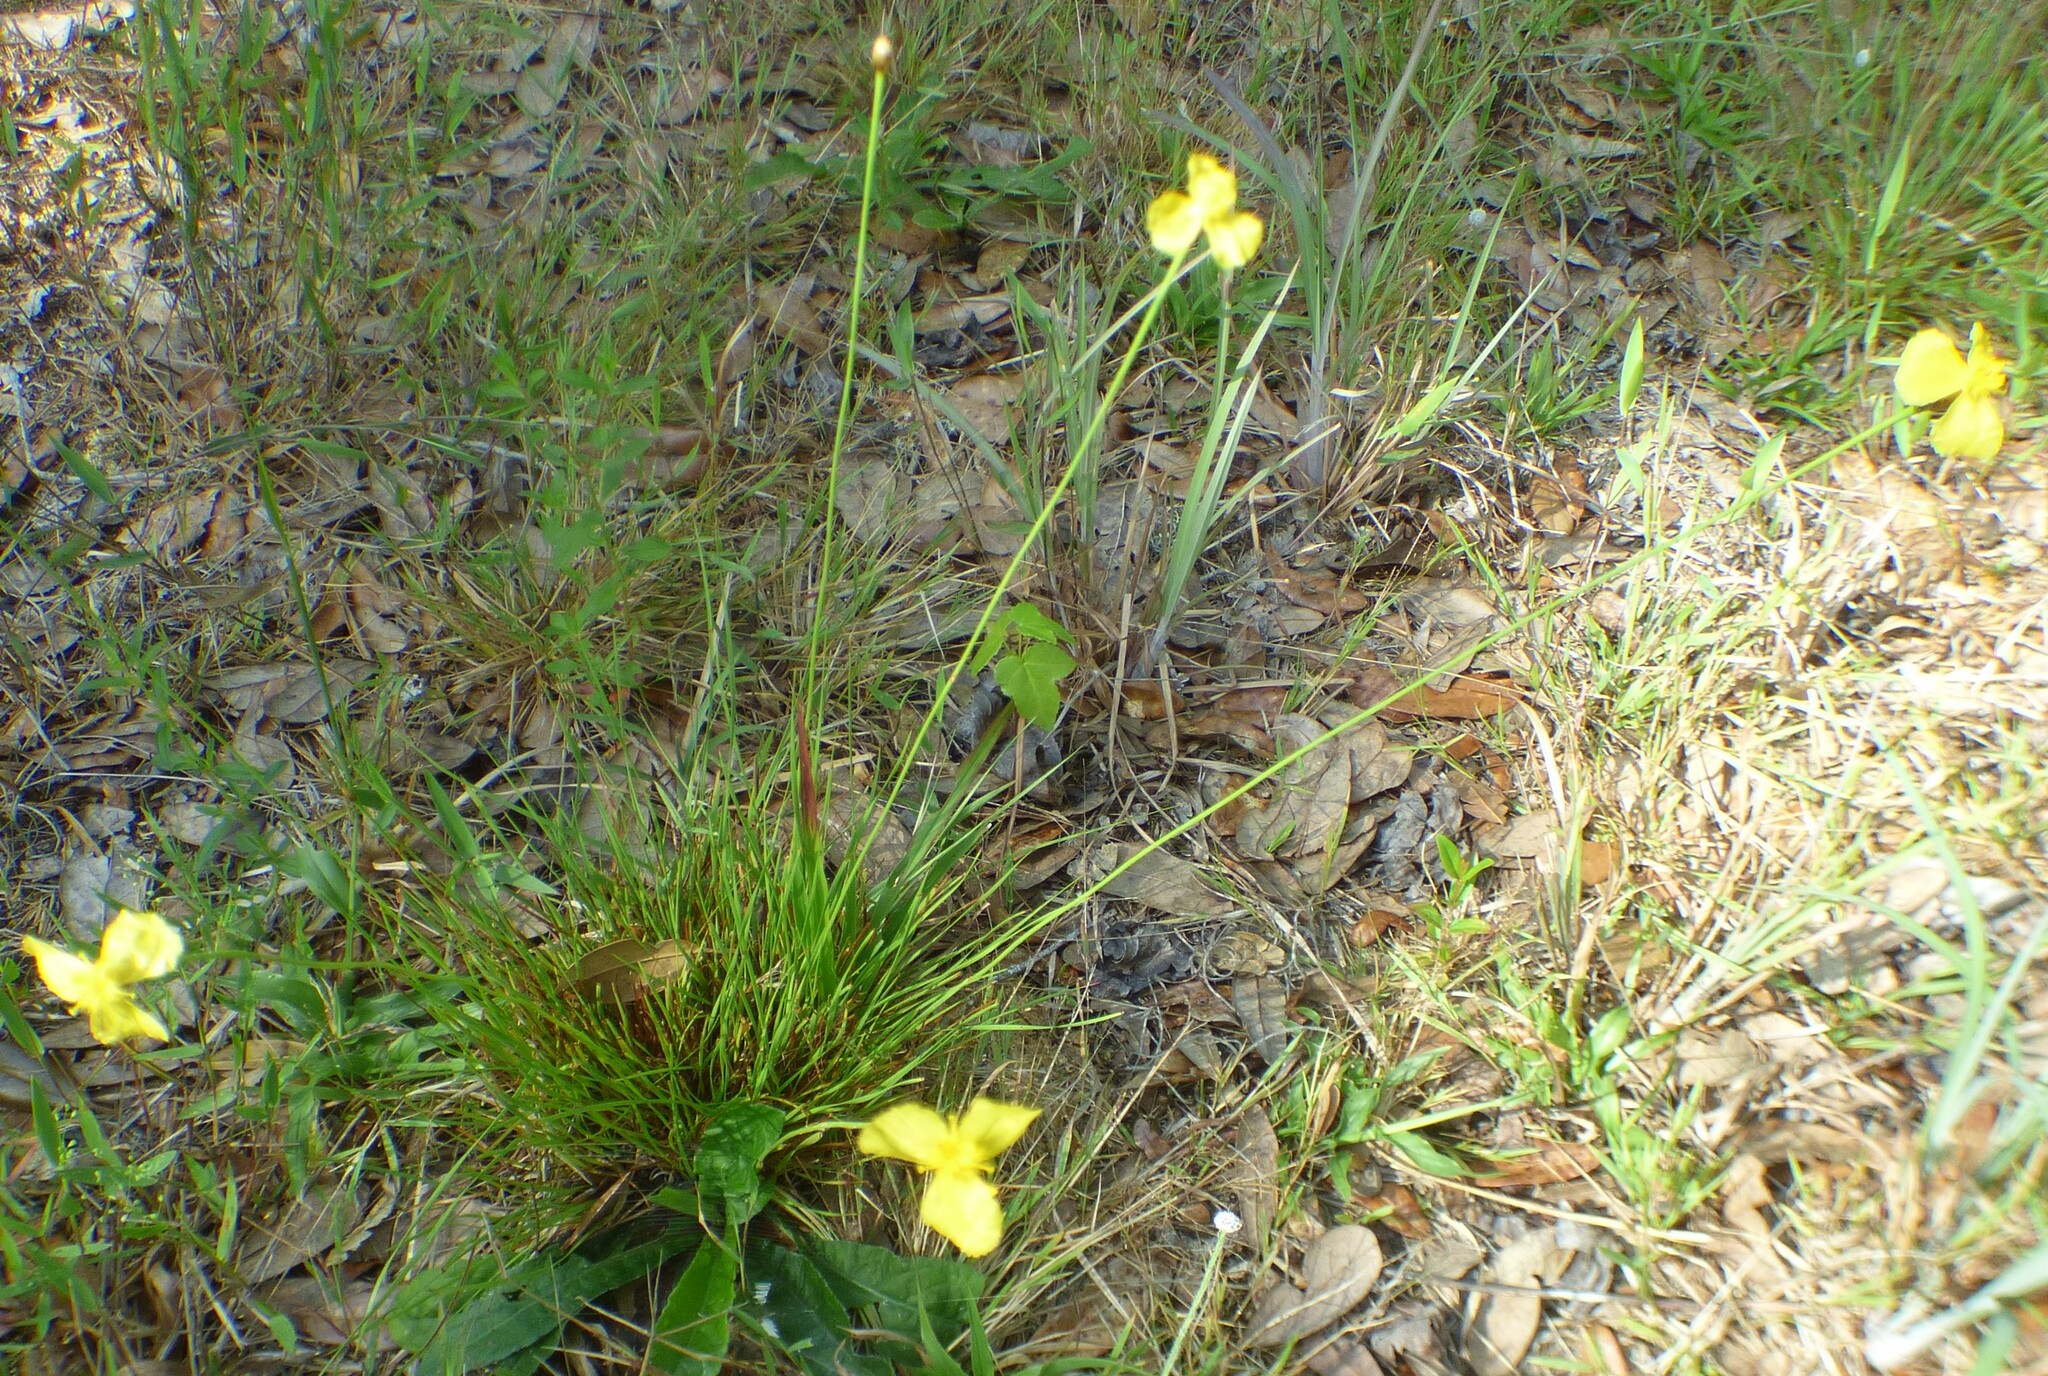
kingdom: Plantae
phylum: Tracheophyta
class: Liliopsida
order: Poales
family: Xyridaceae
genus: Xyris
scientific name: Xyris elliottii
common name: Elliot's yelloweyed grass
